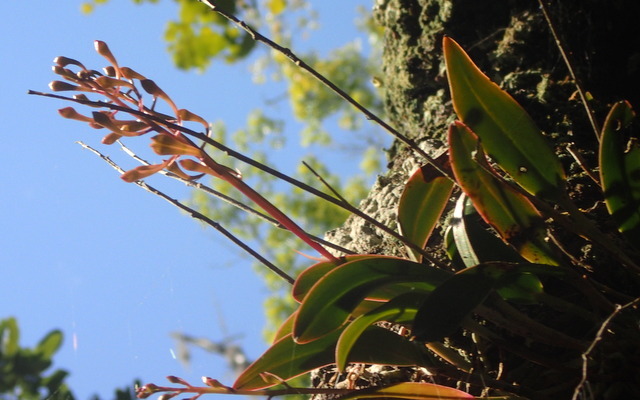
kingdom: Plantae
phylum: Tracheophyta
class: Liliopsida
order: Asparagales
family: Orchidaceae
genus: Epidendrum
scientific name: Epidendrum conopseum
